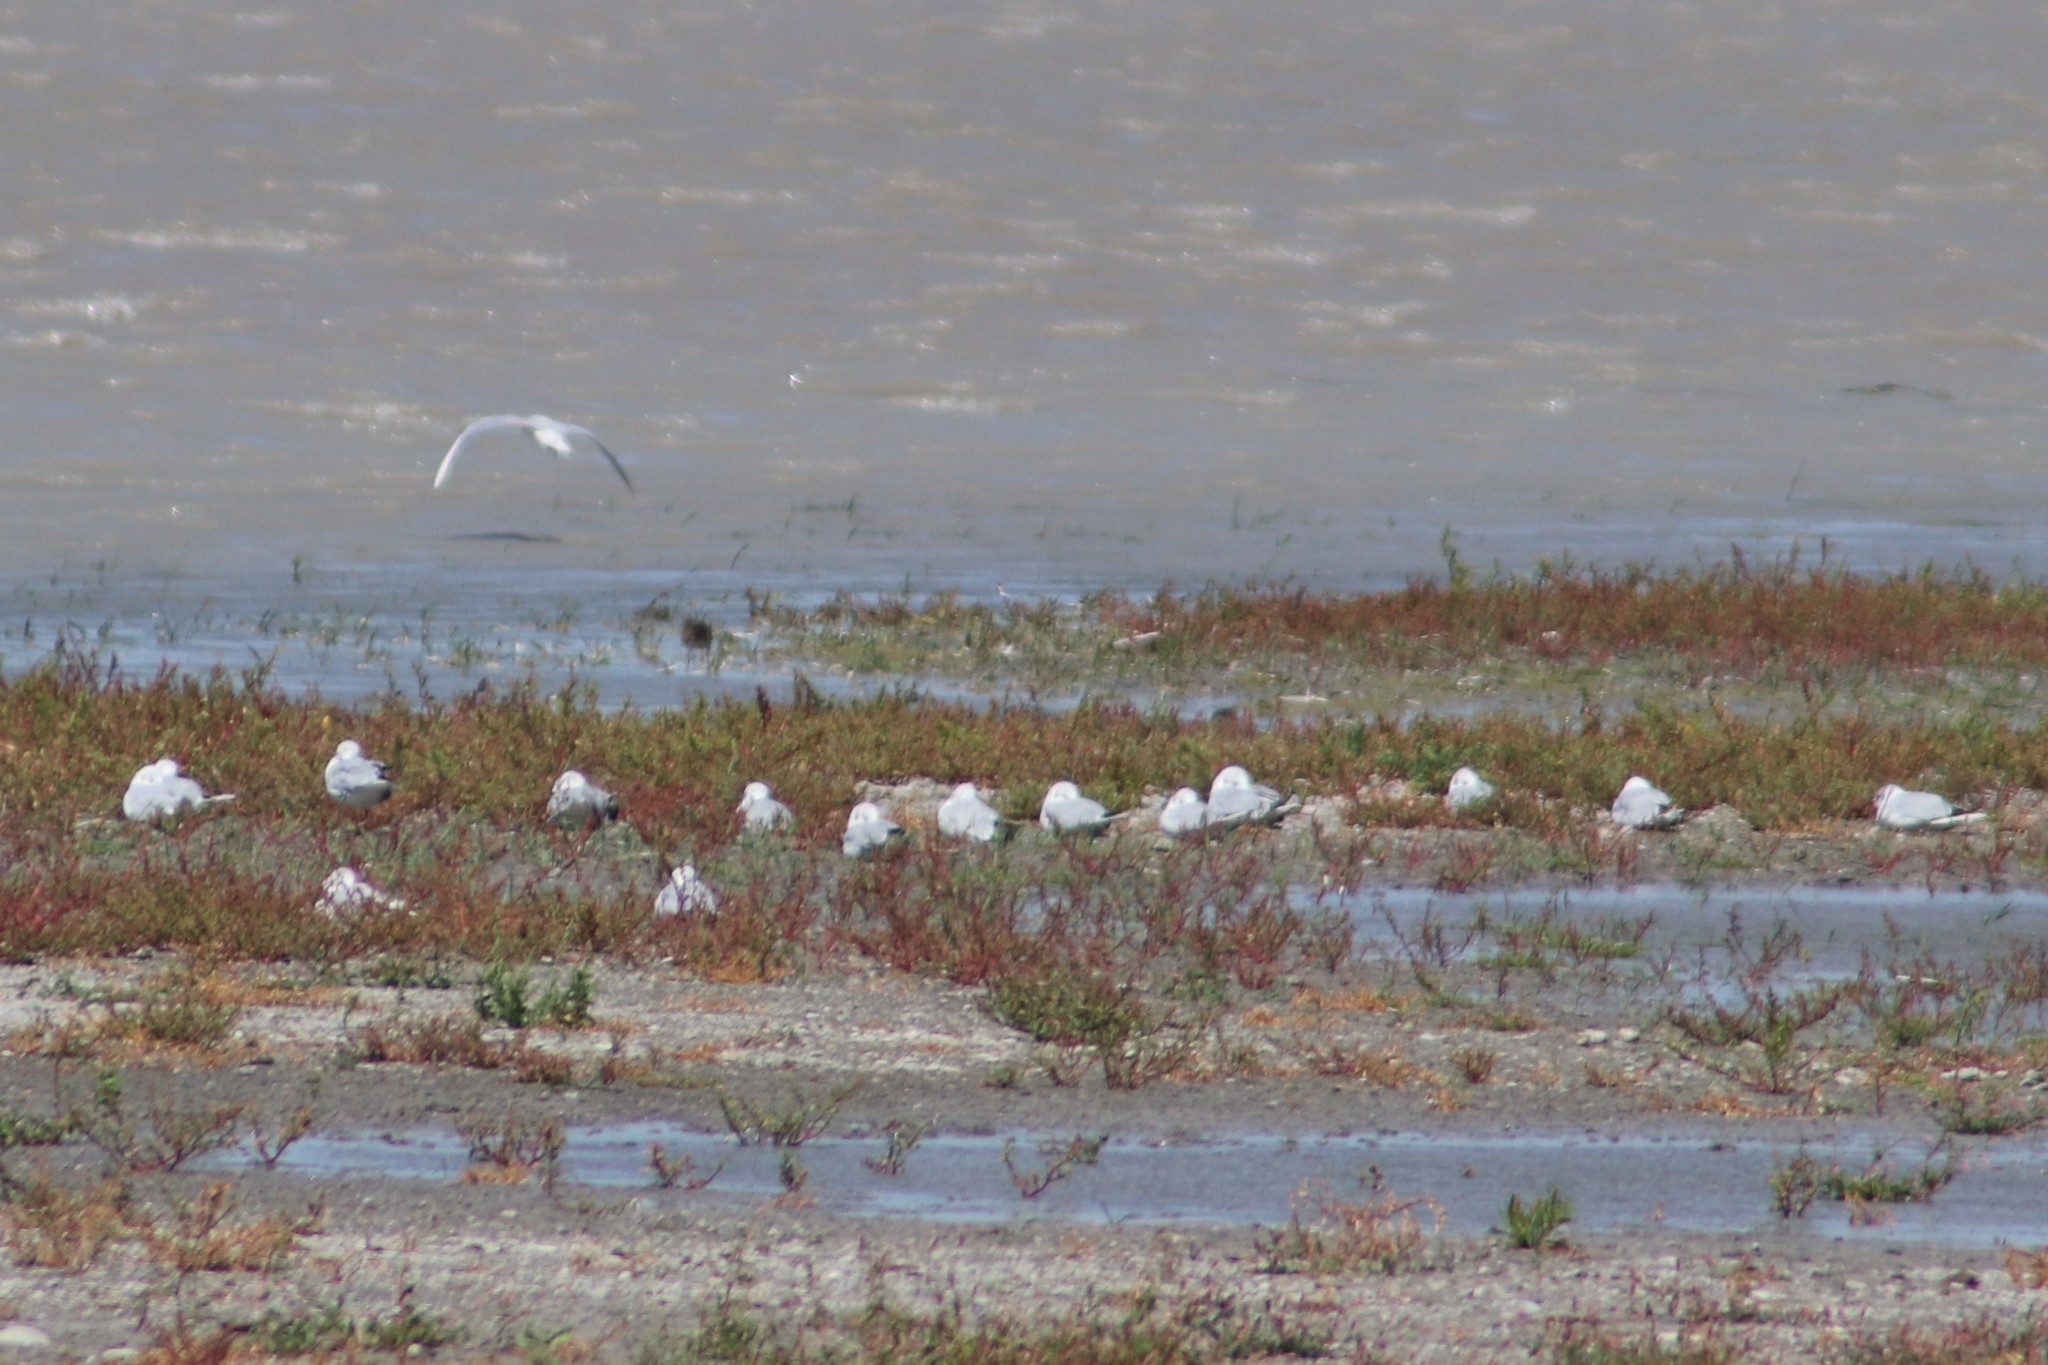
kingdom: Animalia
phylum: Chordata
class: Aves
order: Charadriiformes
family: Laridae
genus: Chroicocephalus
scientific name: Chroicocephalus ridibundus
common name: Black-headed gull
